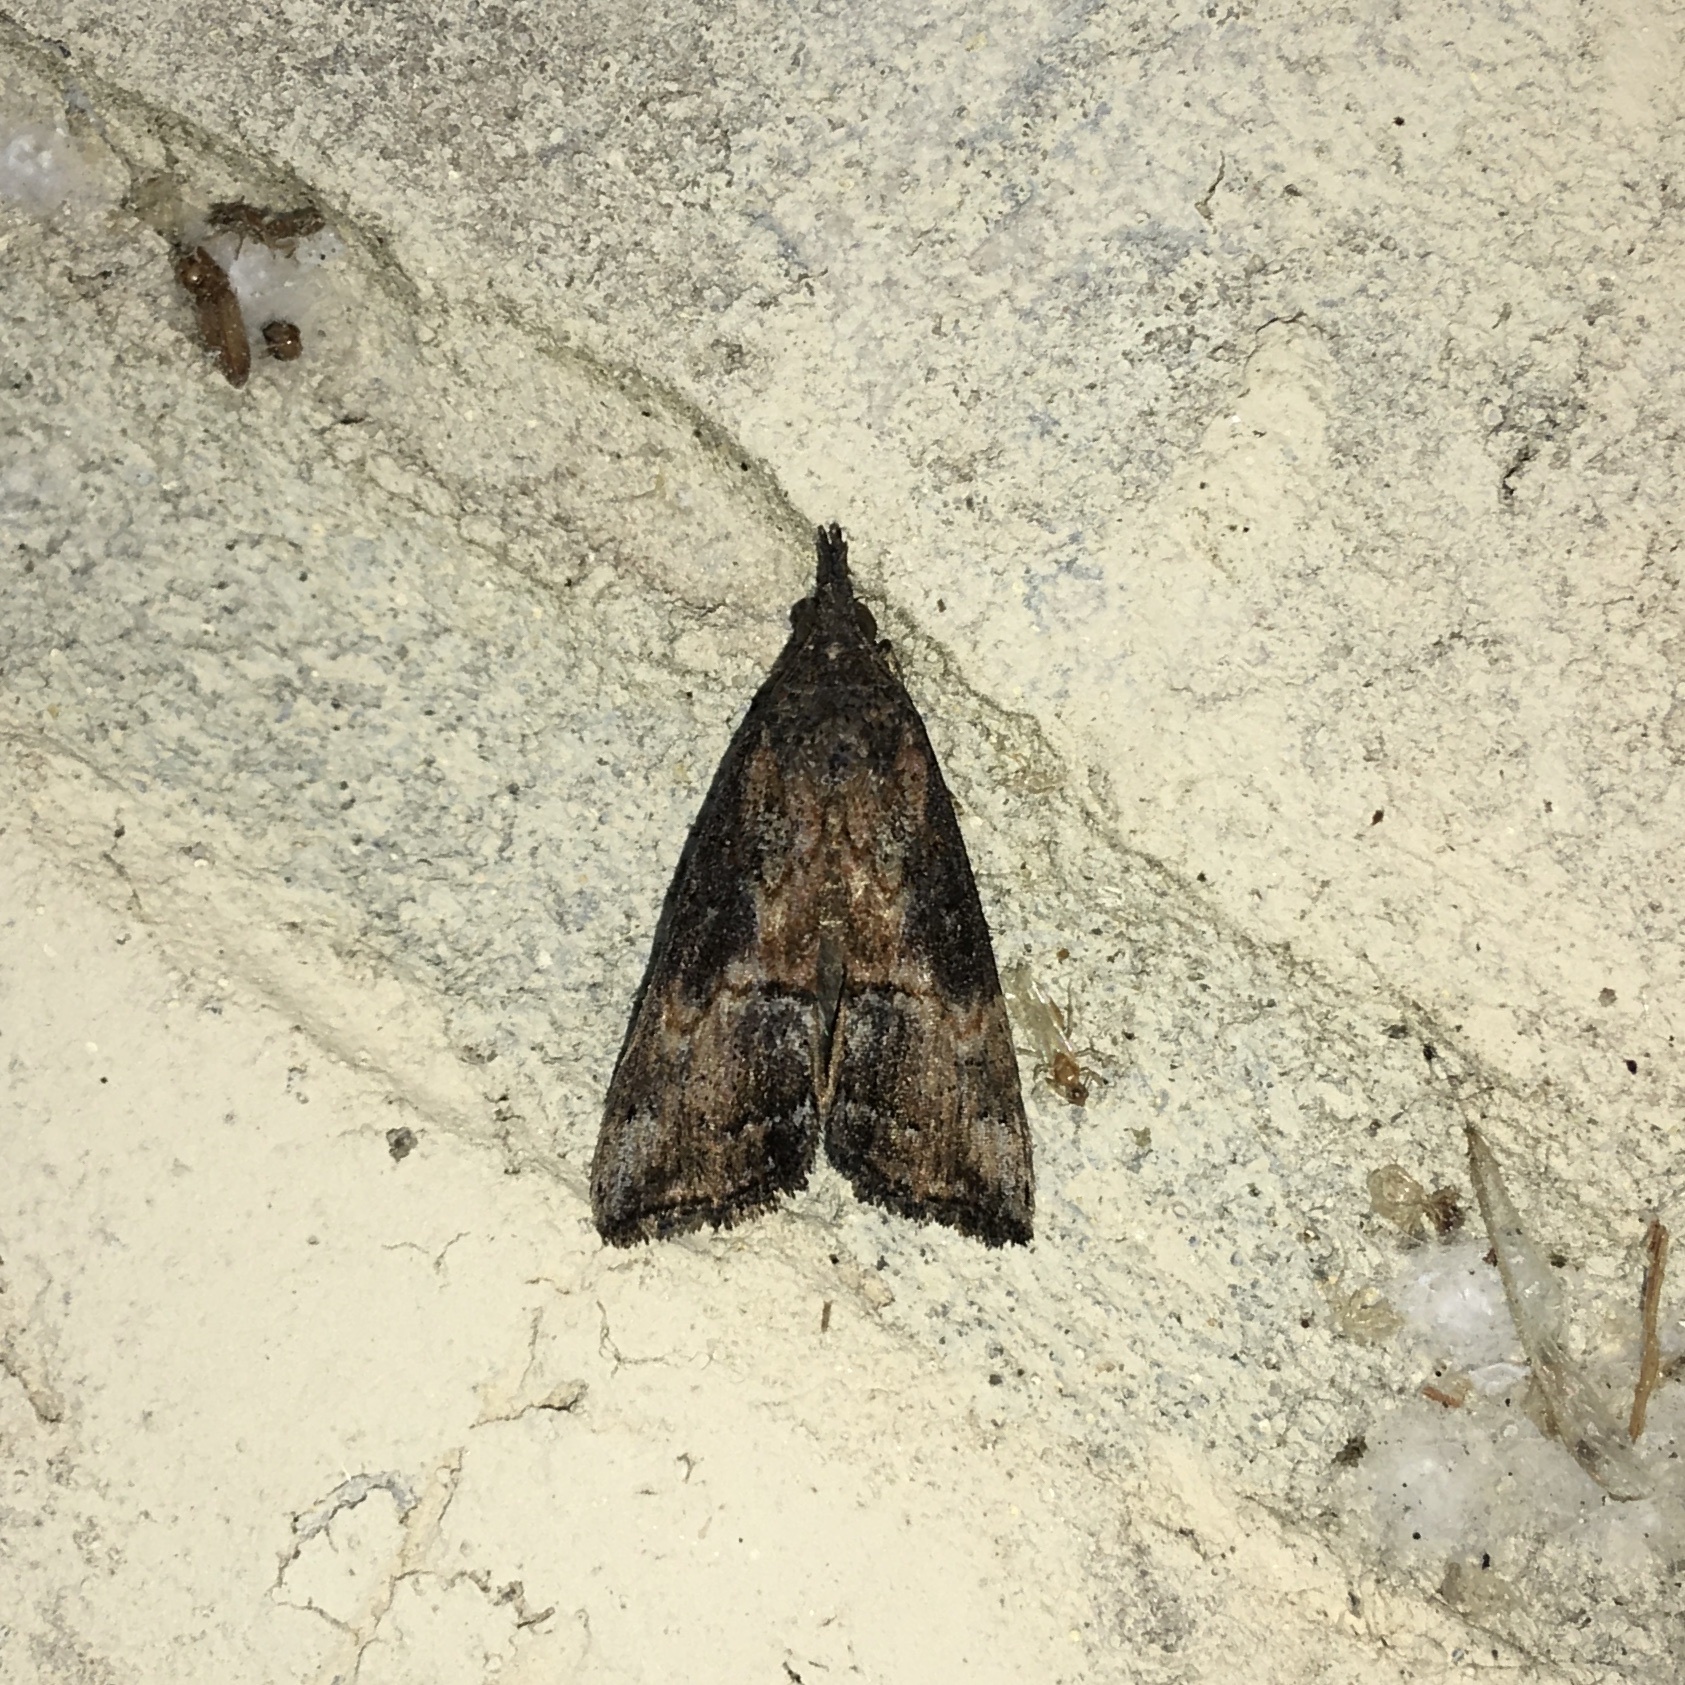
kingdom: Animalia
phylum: Arthropoda
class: Insecta
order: Lepidoptera
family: Erebidae
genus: Hypena
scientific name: Hypena scabra
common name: Green cloverworm
